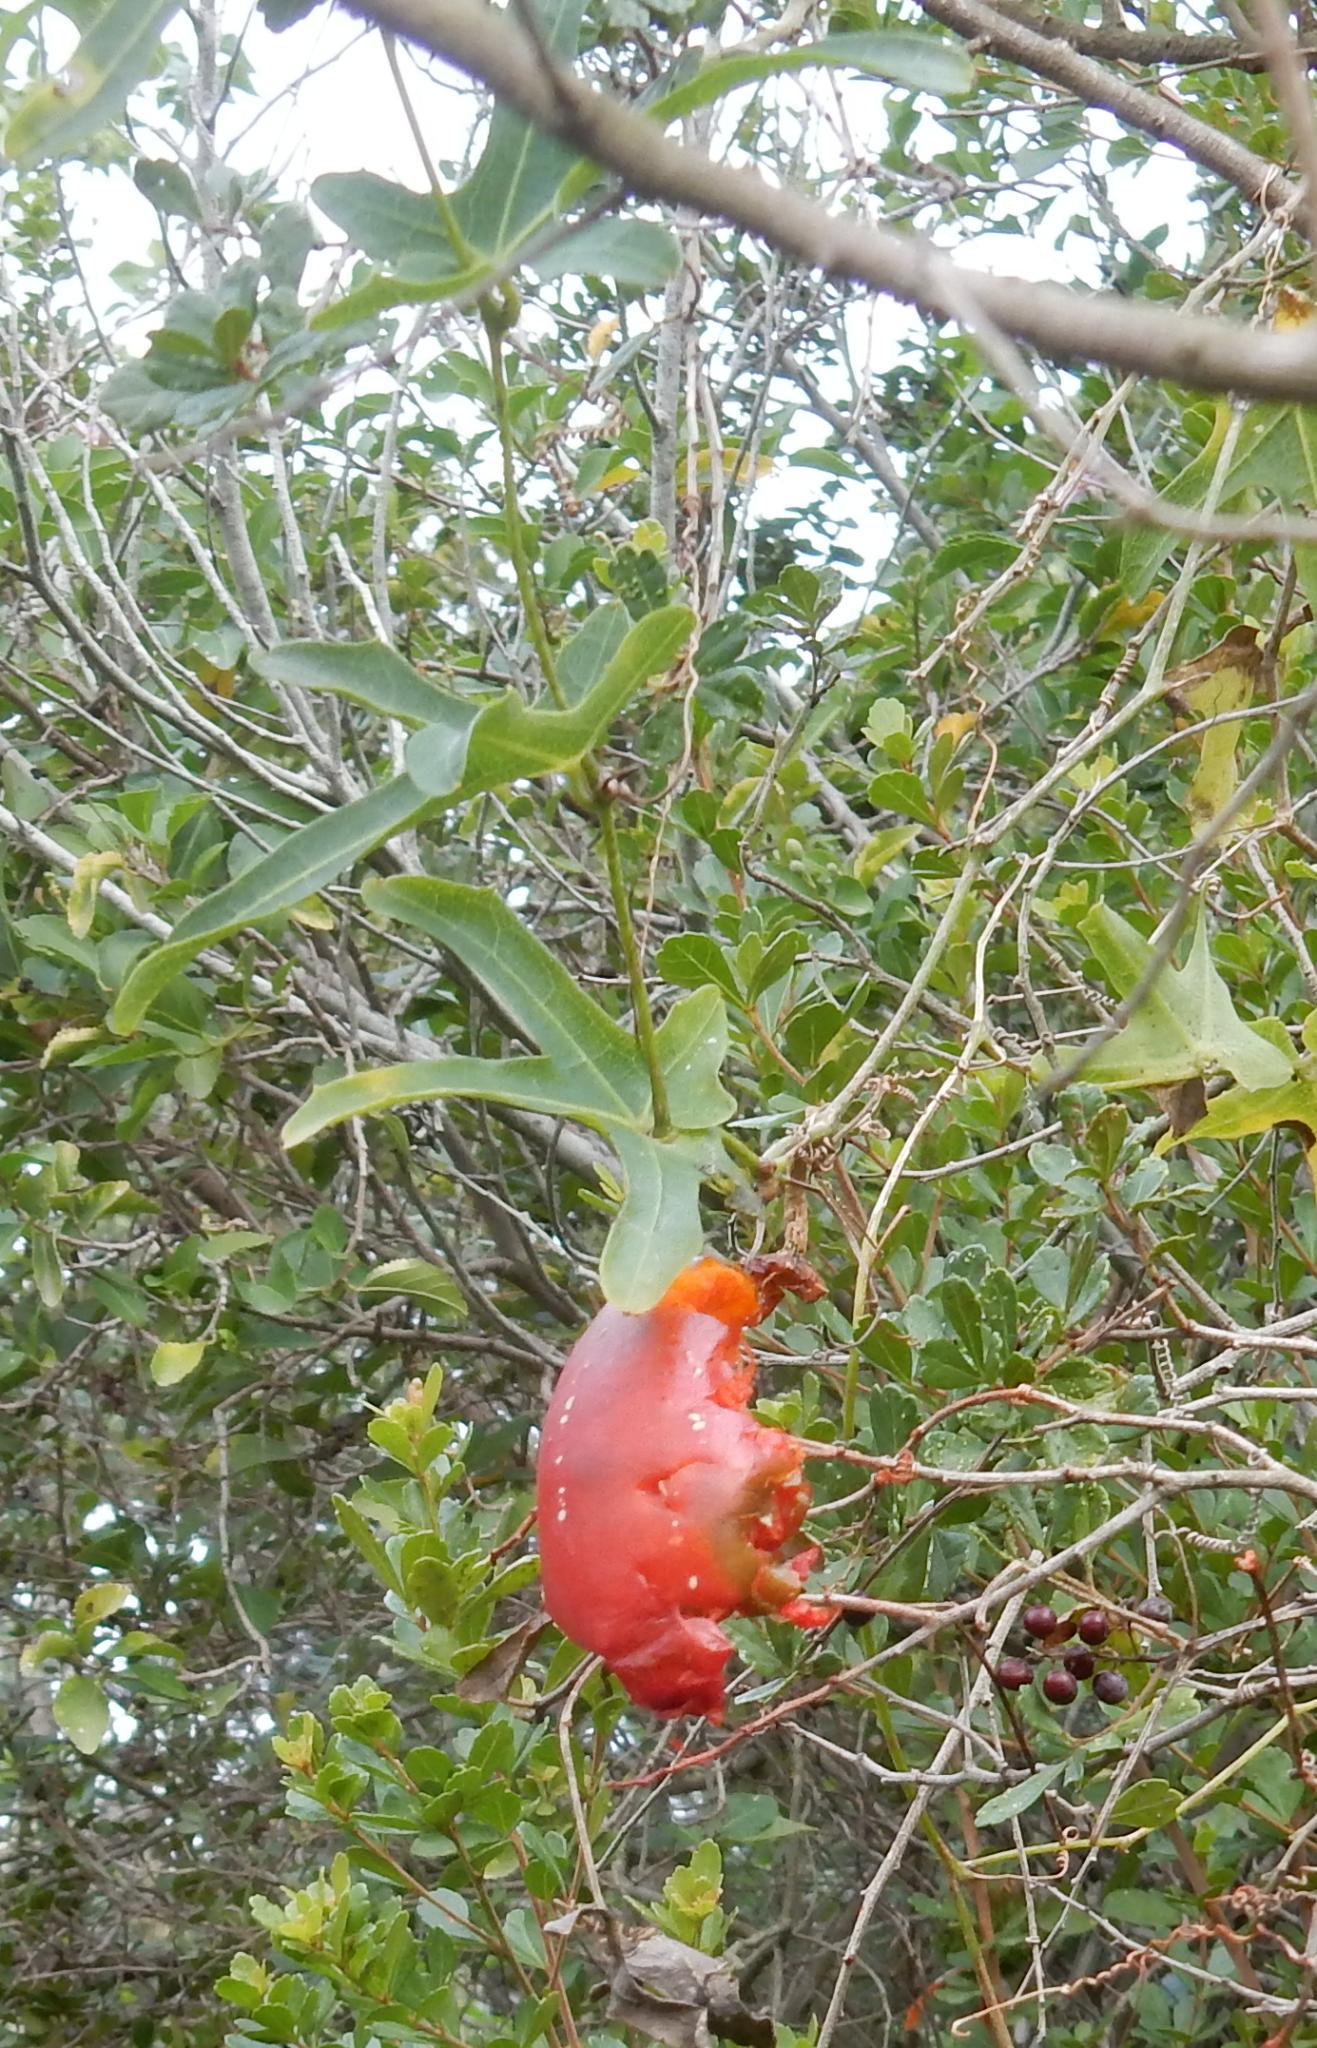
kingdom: Plantae
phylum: Tracheophyta
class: Magnoliopsida
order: Cucurbitales
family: Cucurbitaceae
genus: Coccinia
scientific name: Coccinia quinqueloba
